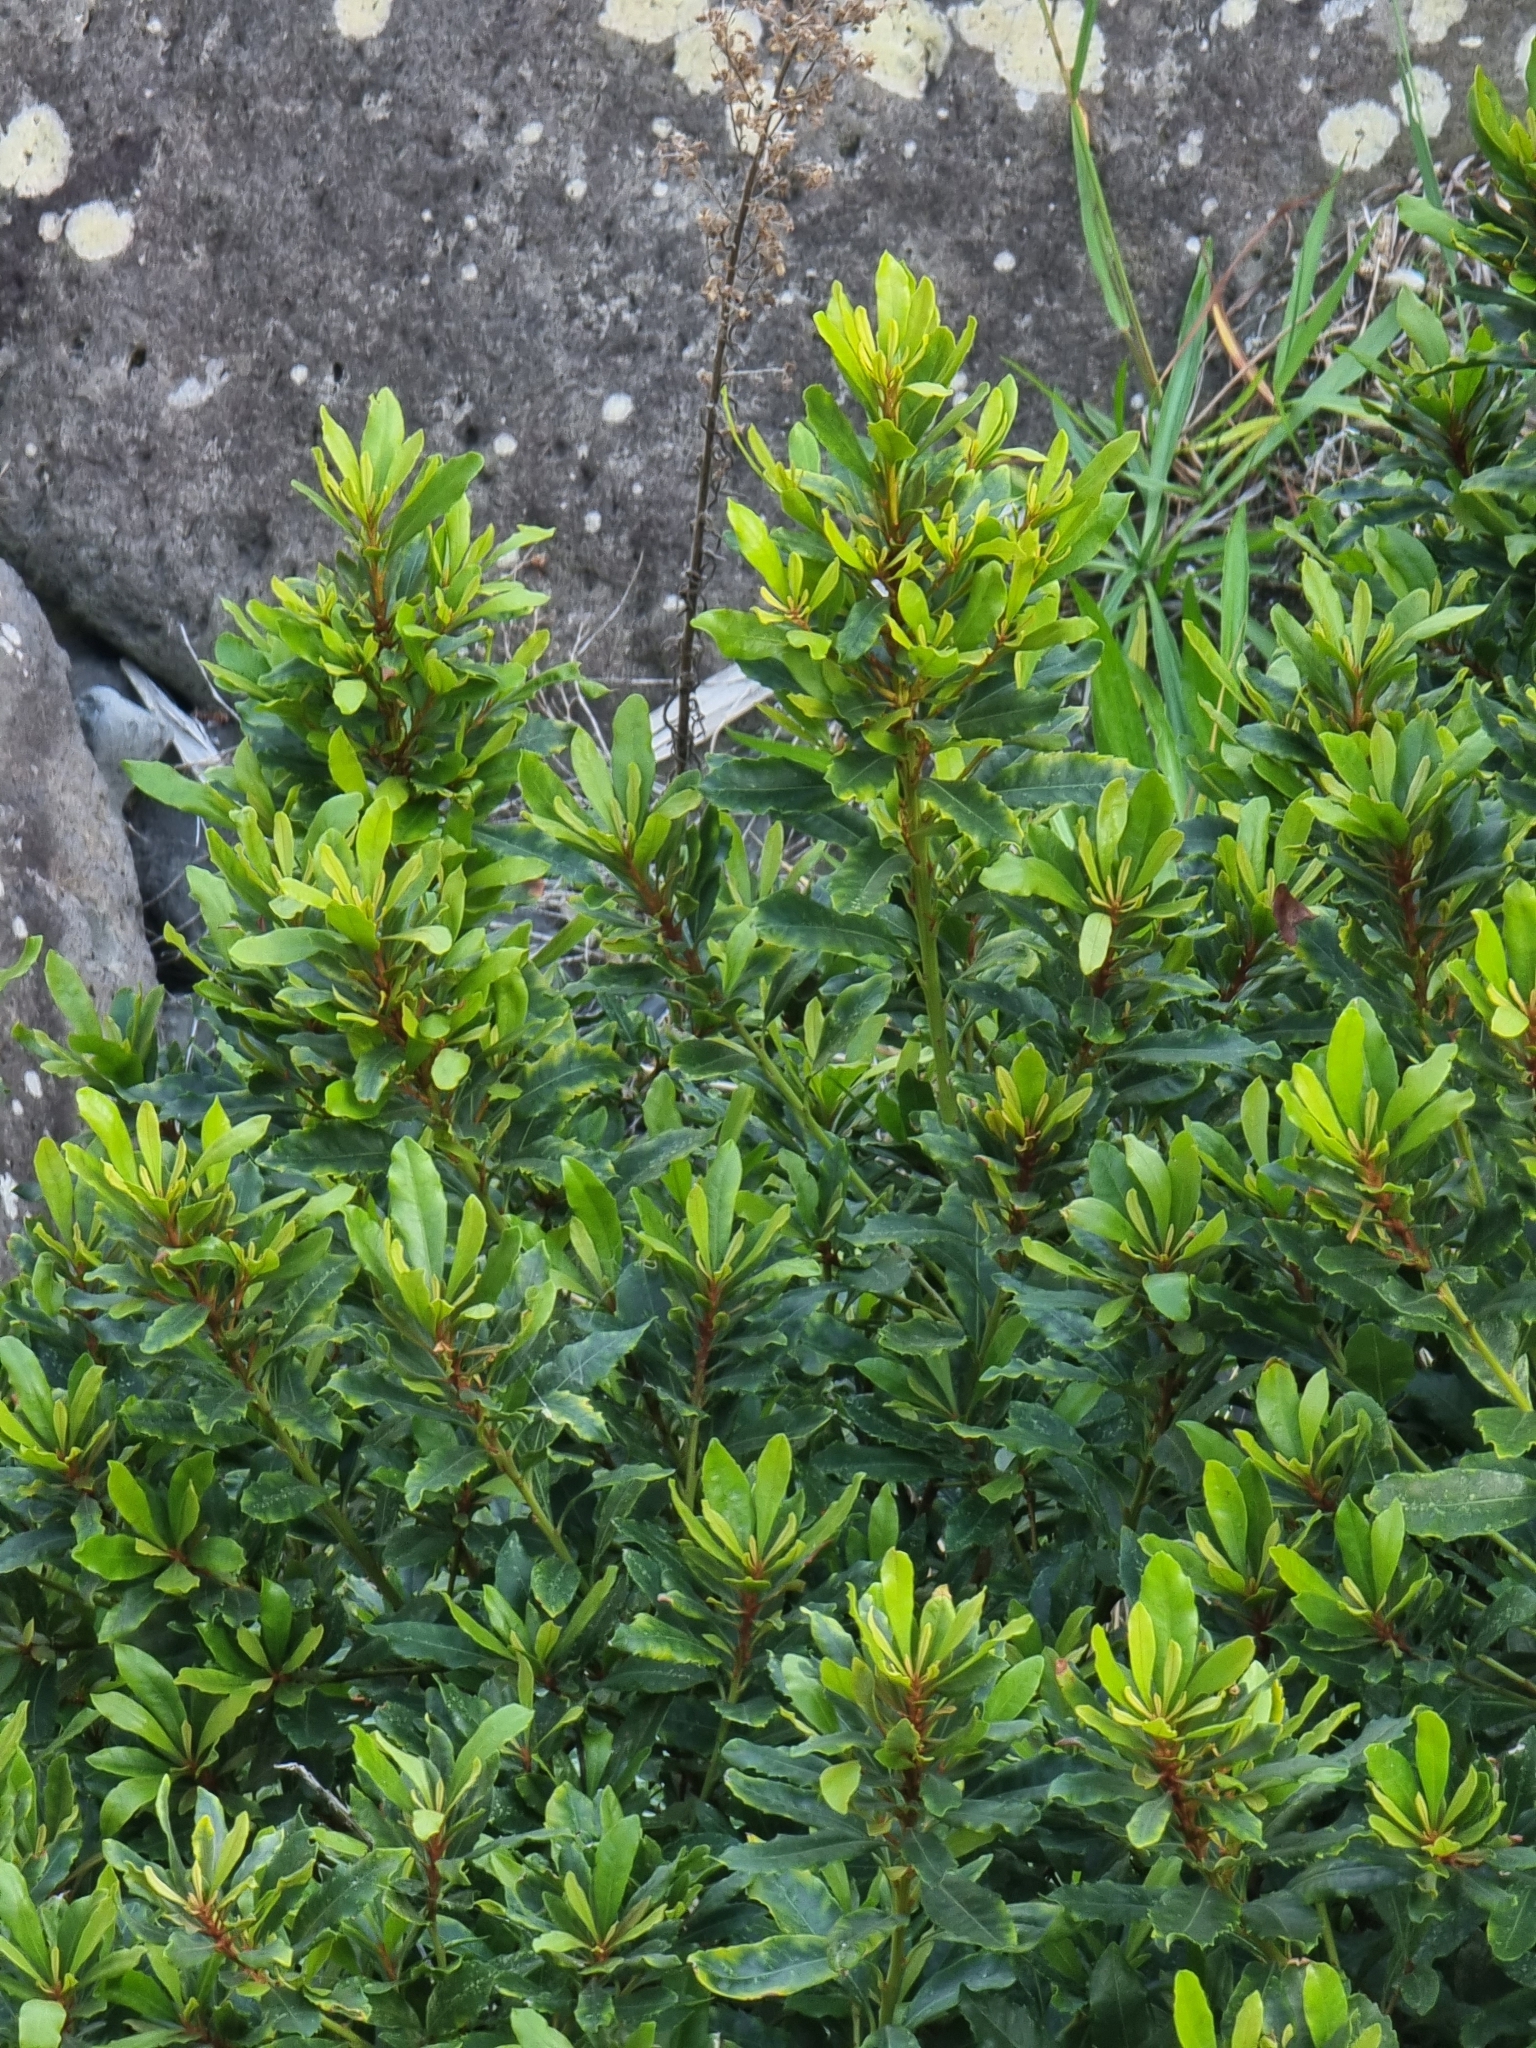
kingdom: Plantae
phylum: Tracheophyta
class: Magnoliopsida
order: Fagales
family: Myricaceae
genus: Morella
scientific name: Morella faya
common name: Firetree
